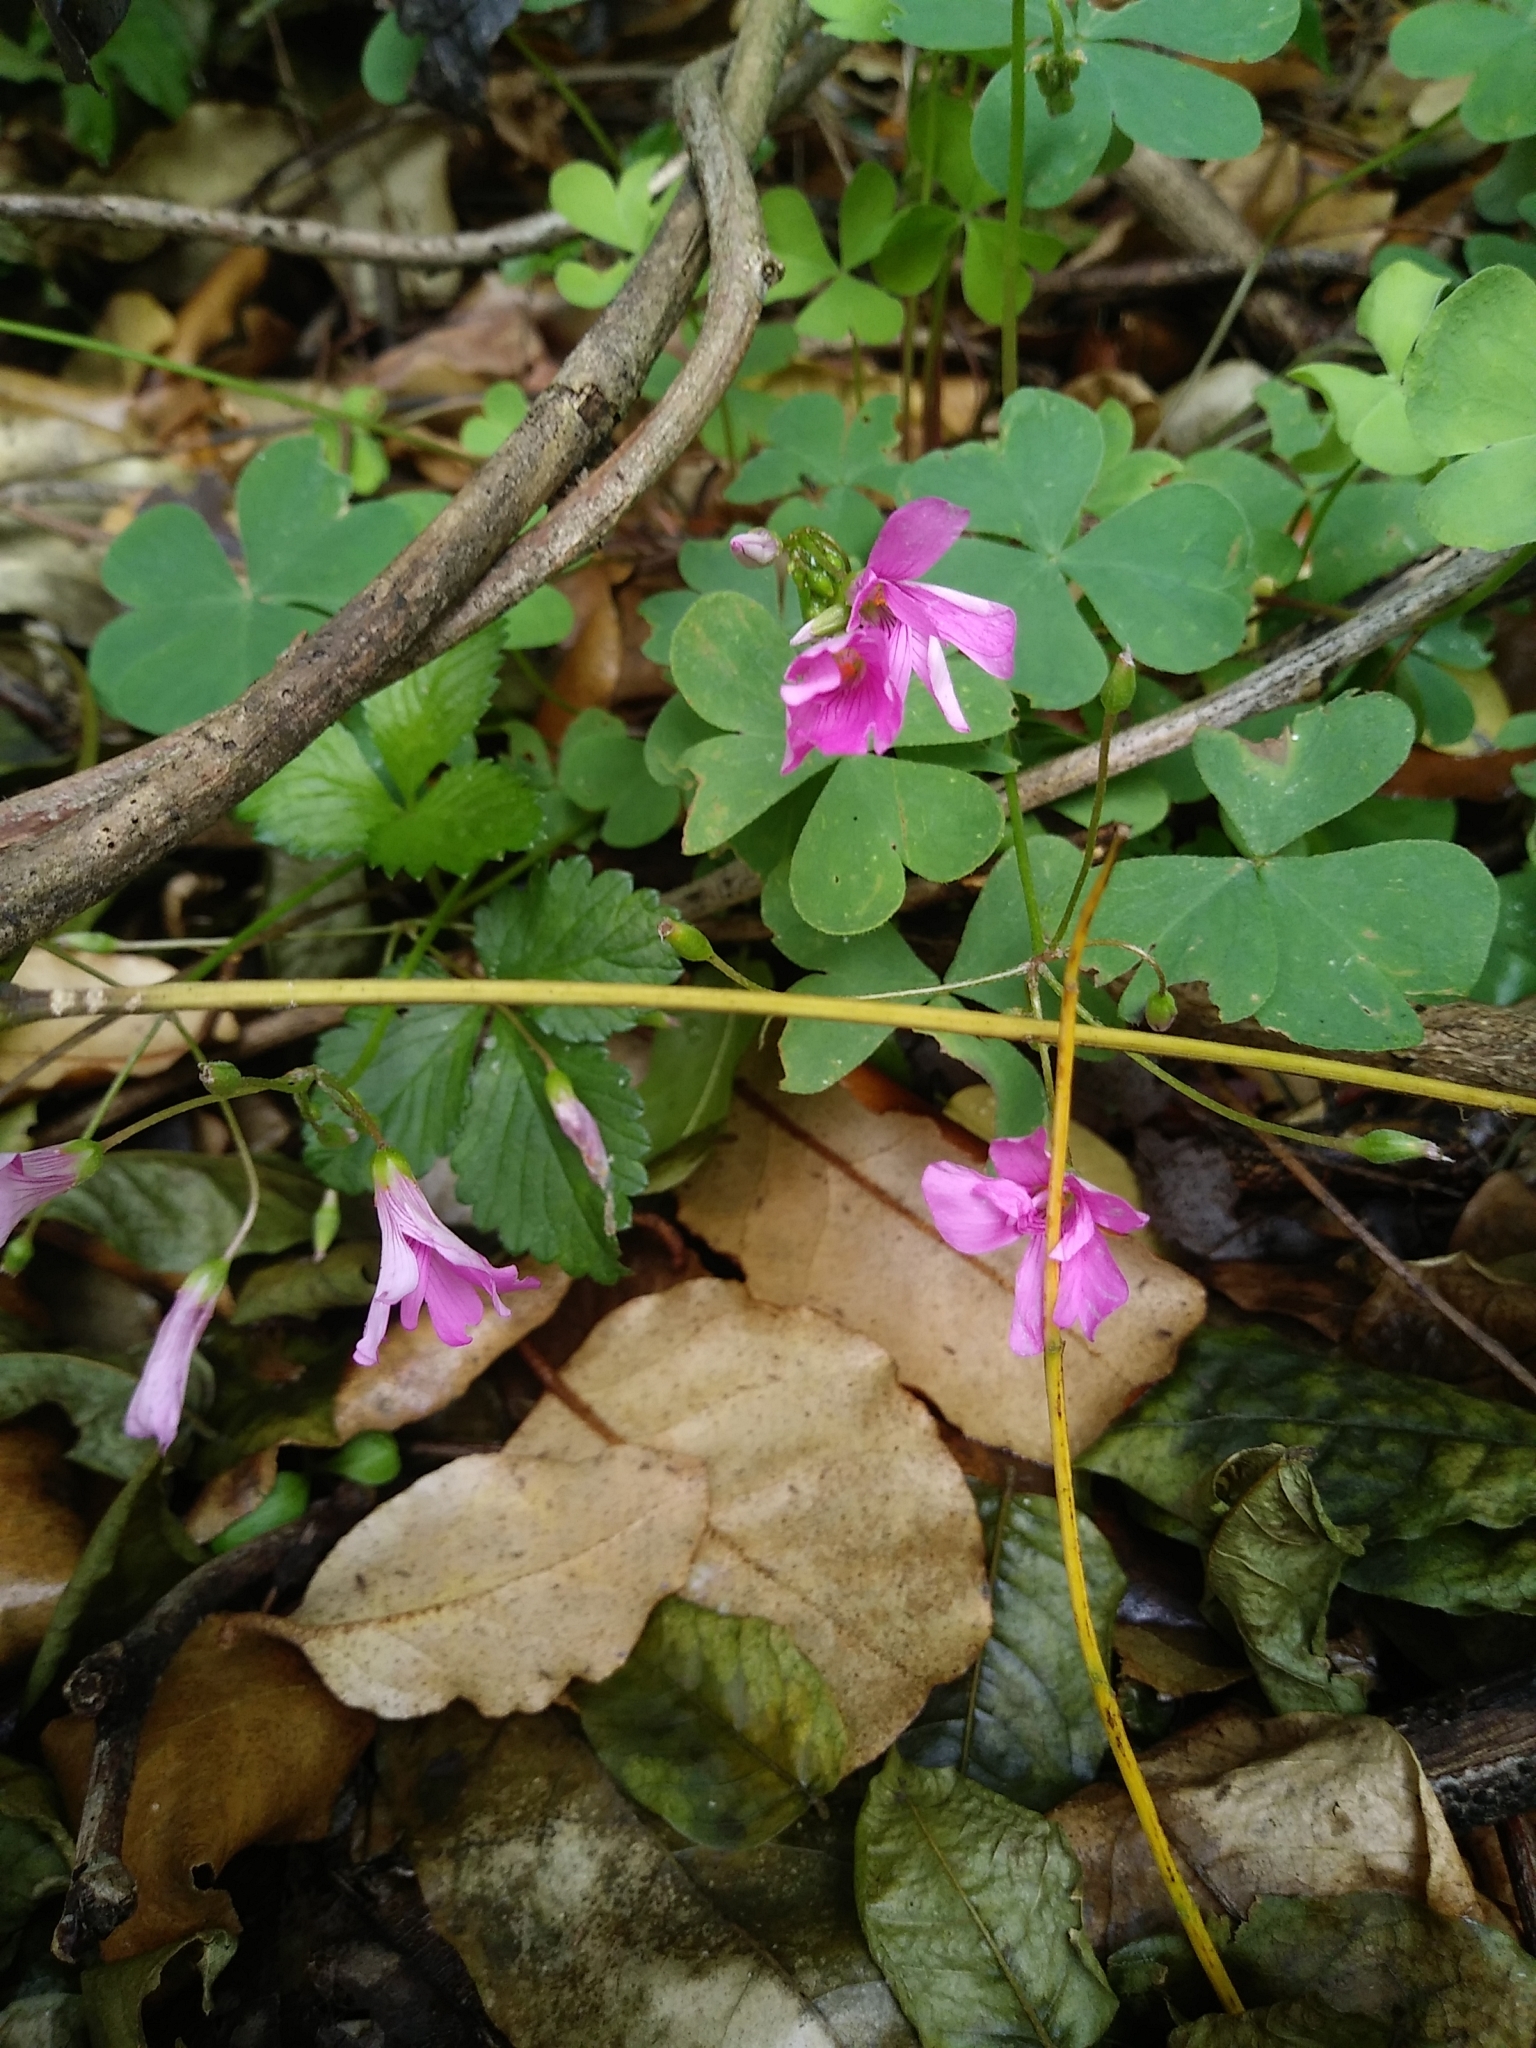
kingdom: Plantae
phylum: Tracheophyta
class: Magnoliopsida
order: Oxalidales
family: Oxalidaceae
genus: Oxalis
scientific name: Oxalis articulata
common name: Pink-sorrel
